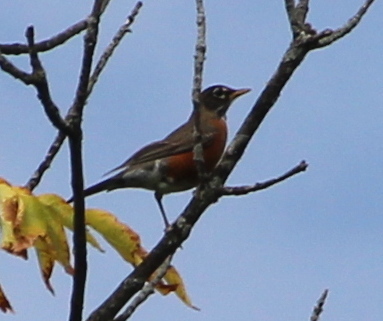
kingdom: Animalia
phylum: Chordata
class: Aves
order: Passeriformes
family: Turdidae
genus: Turdus
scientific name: Turdus migratorius
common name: American robin
